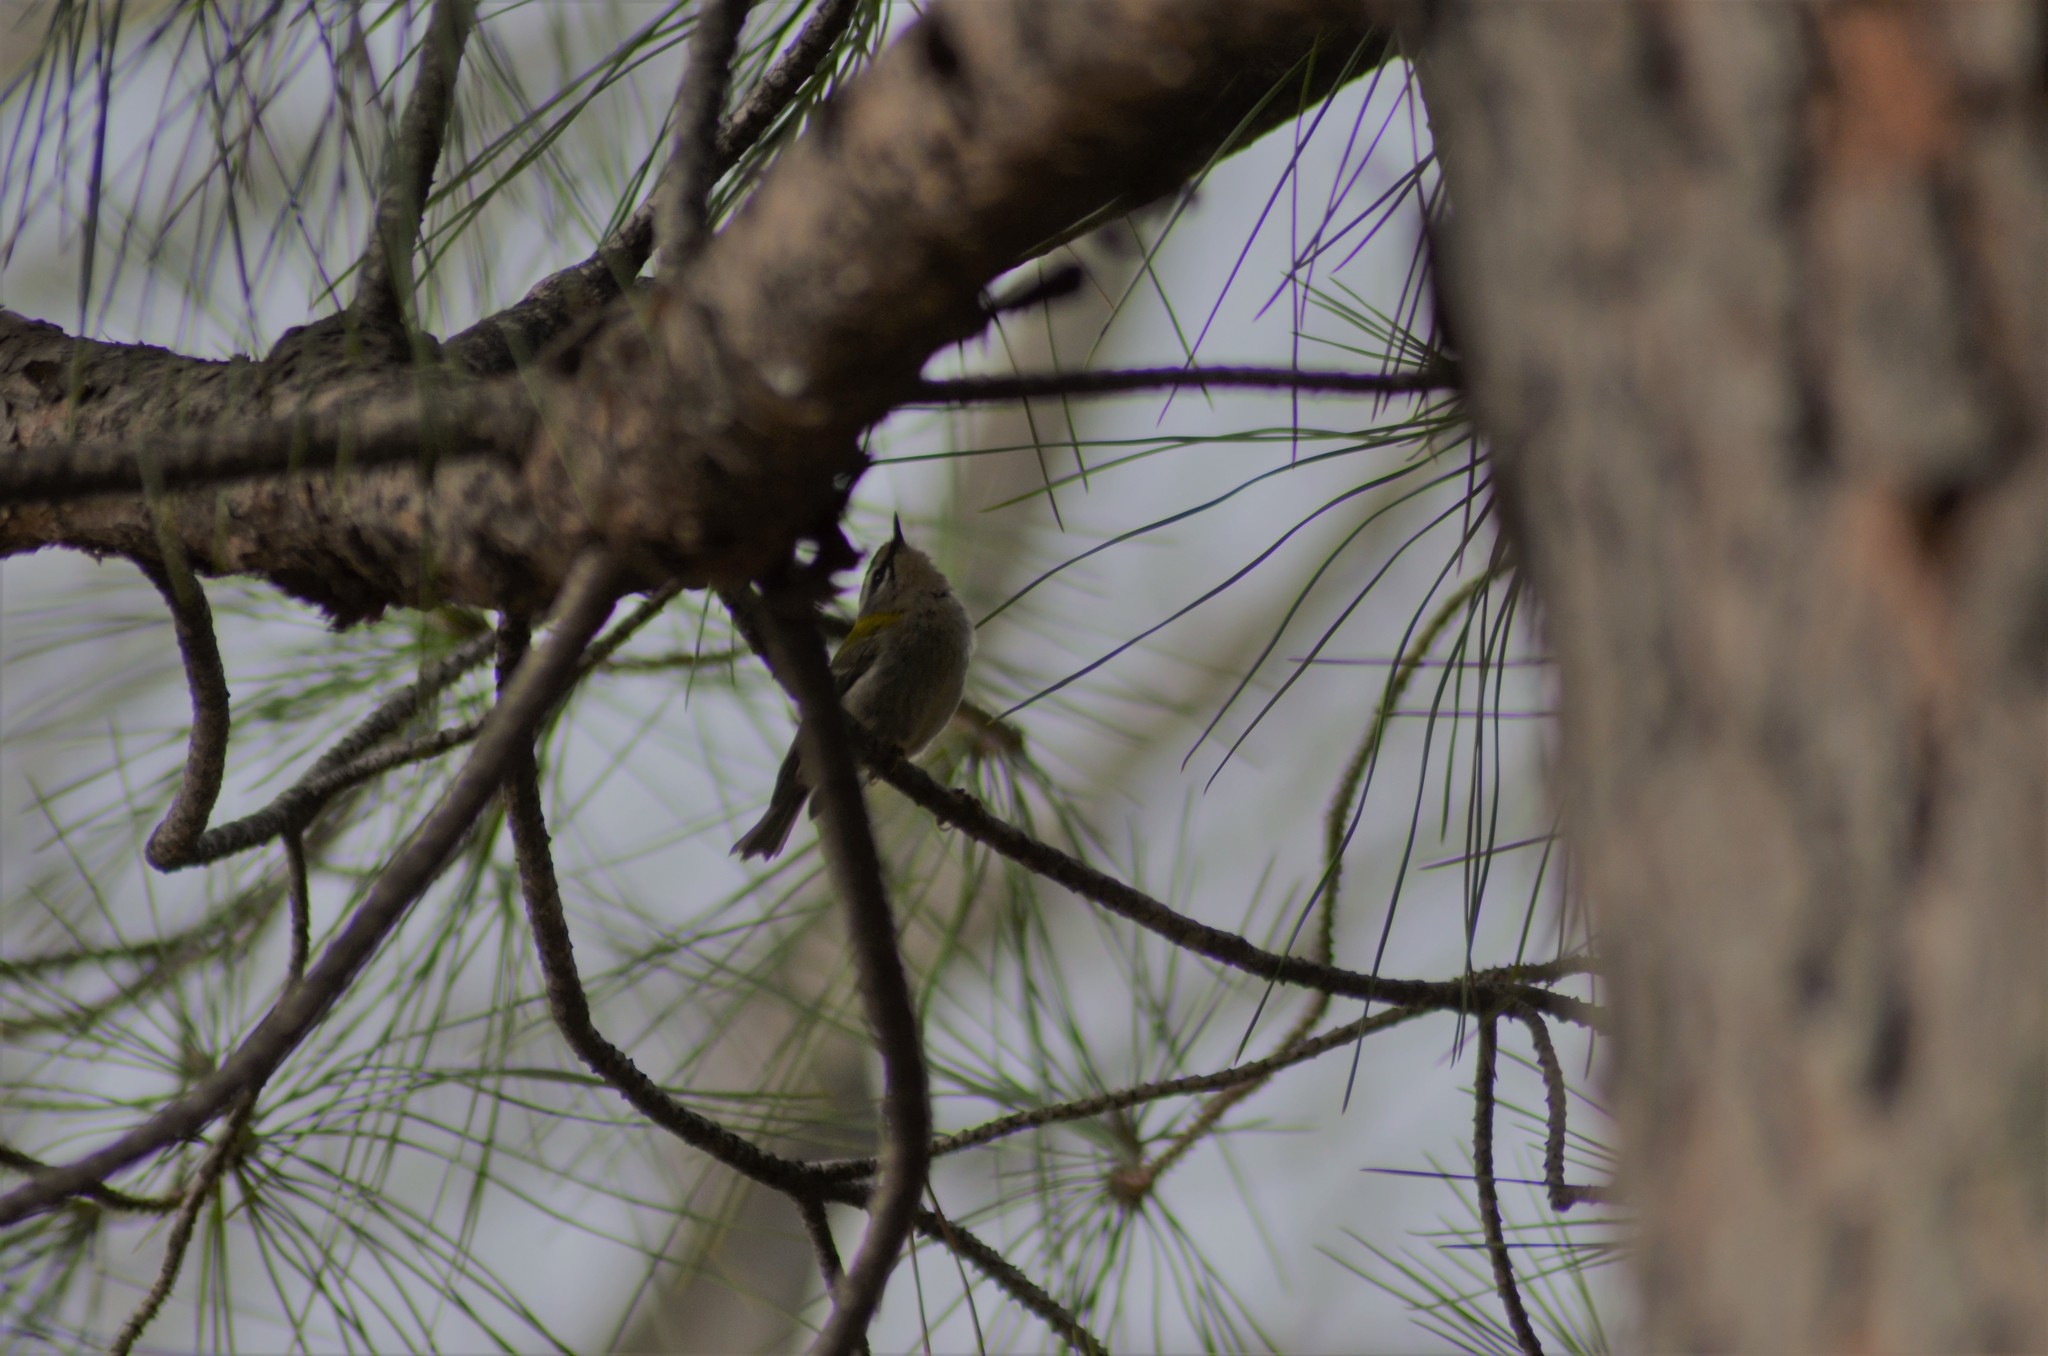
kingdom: Animalia
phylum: Chordata
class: Aves
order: Passeriformes
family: Regulidae
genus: Regulus
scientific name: Regulus ignicapilla
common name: Firecrest
